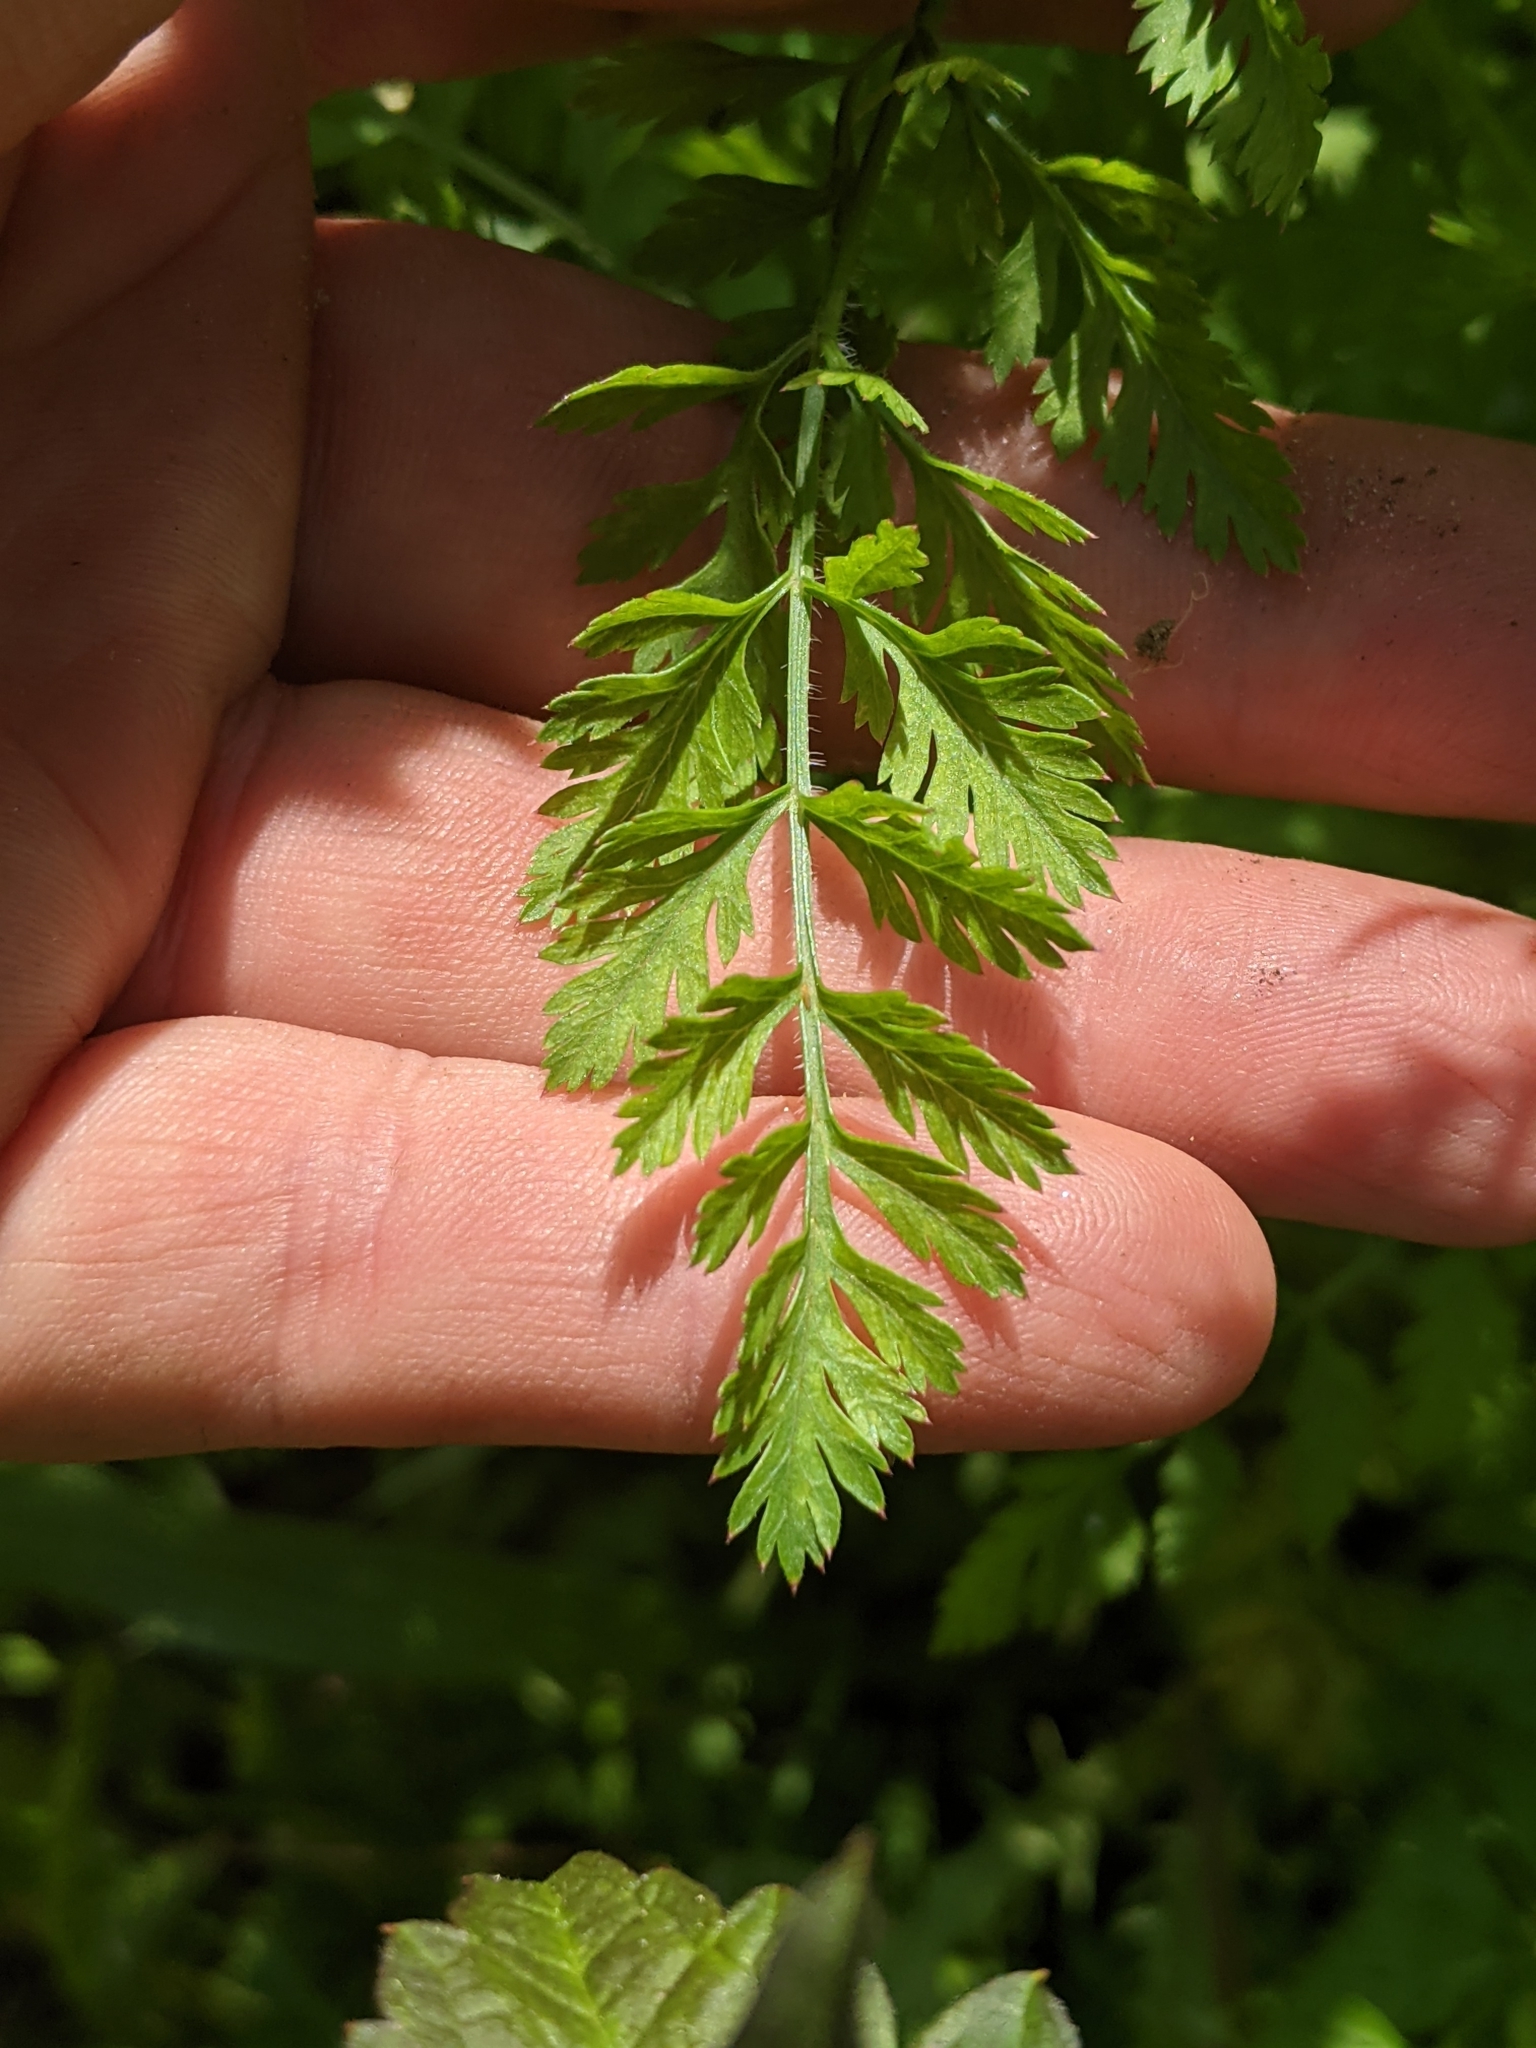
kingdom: Plantae
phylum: Tracheophyta
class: Magnoliopsida
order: Apiales
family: Apiaceae
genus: Daucus
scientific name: Daucus carota
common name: Wild carrot
